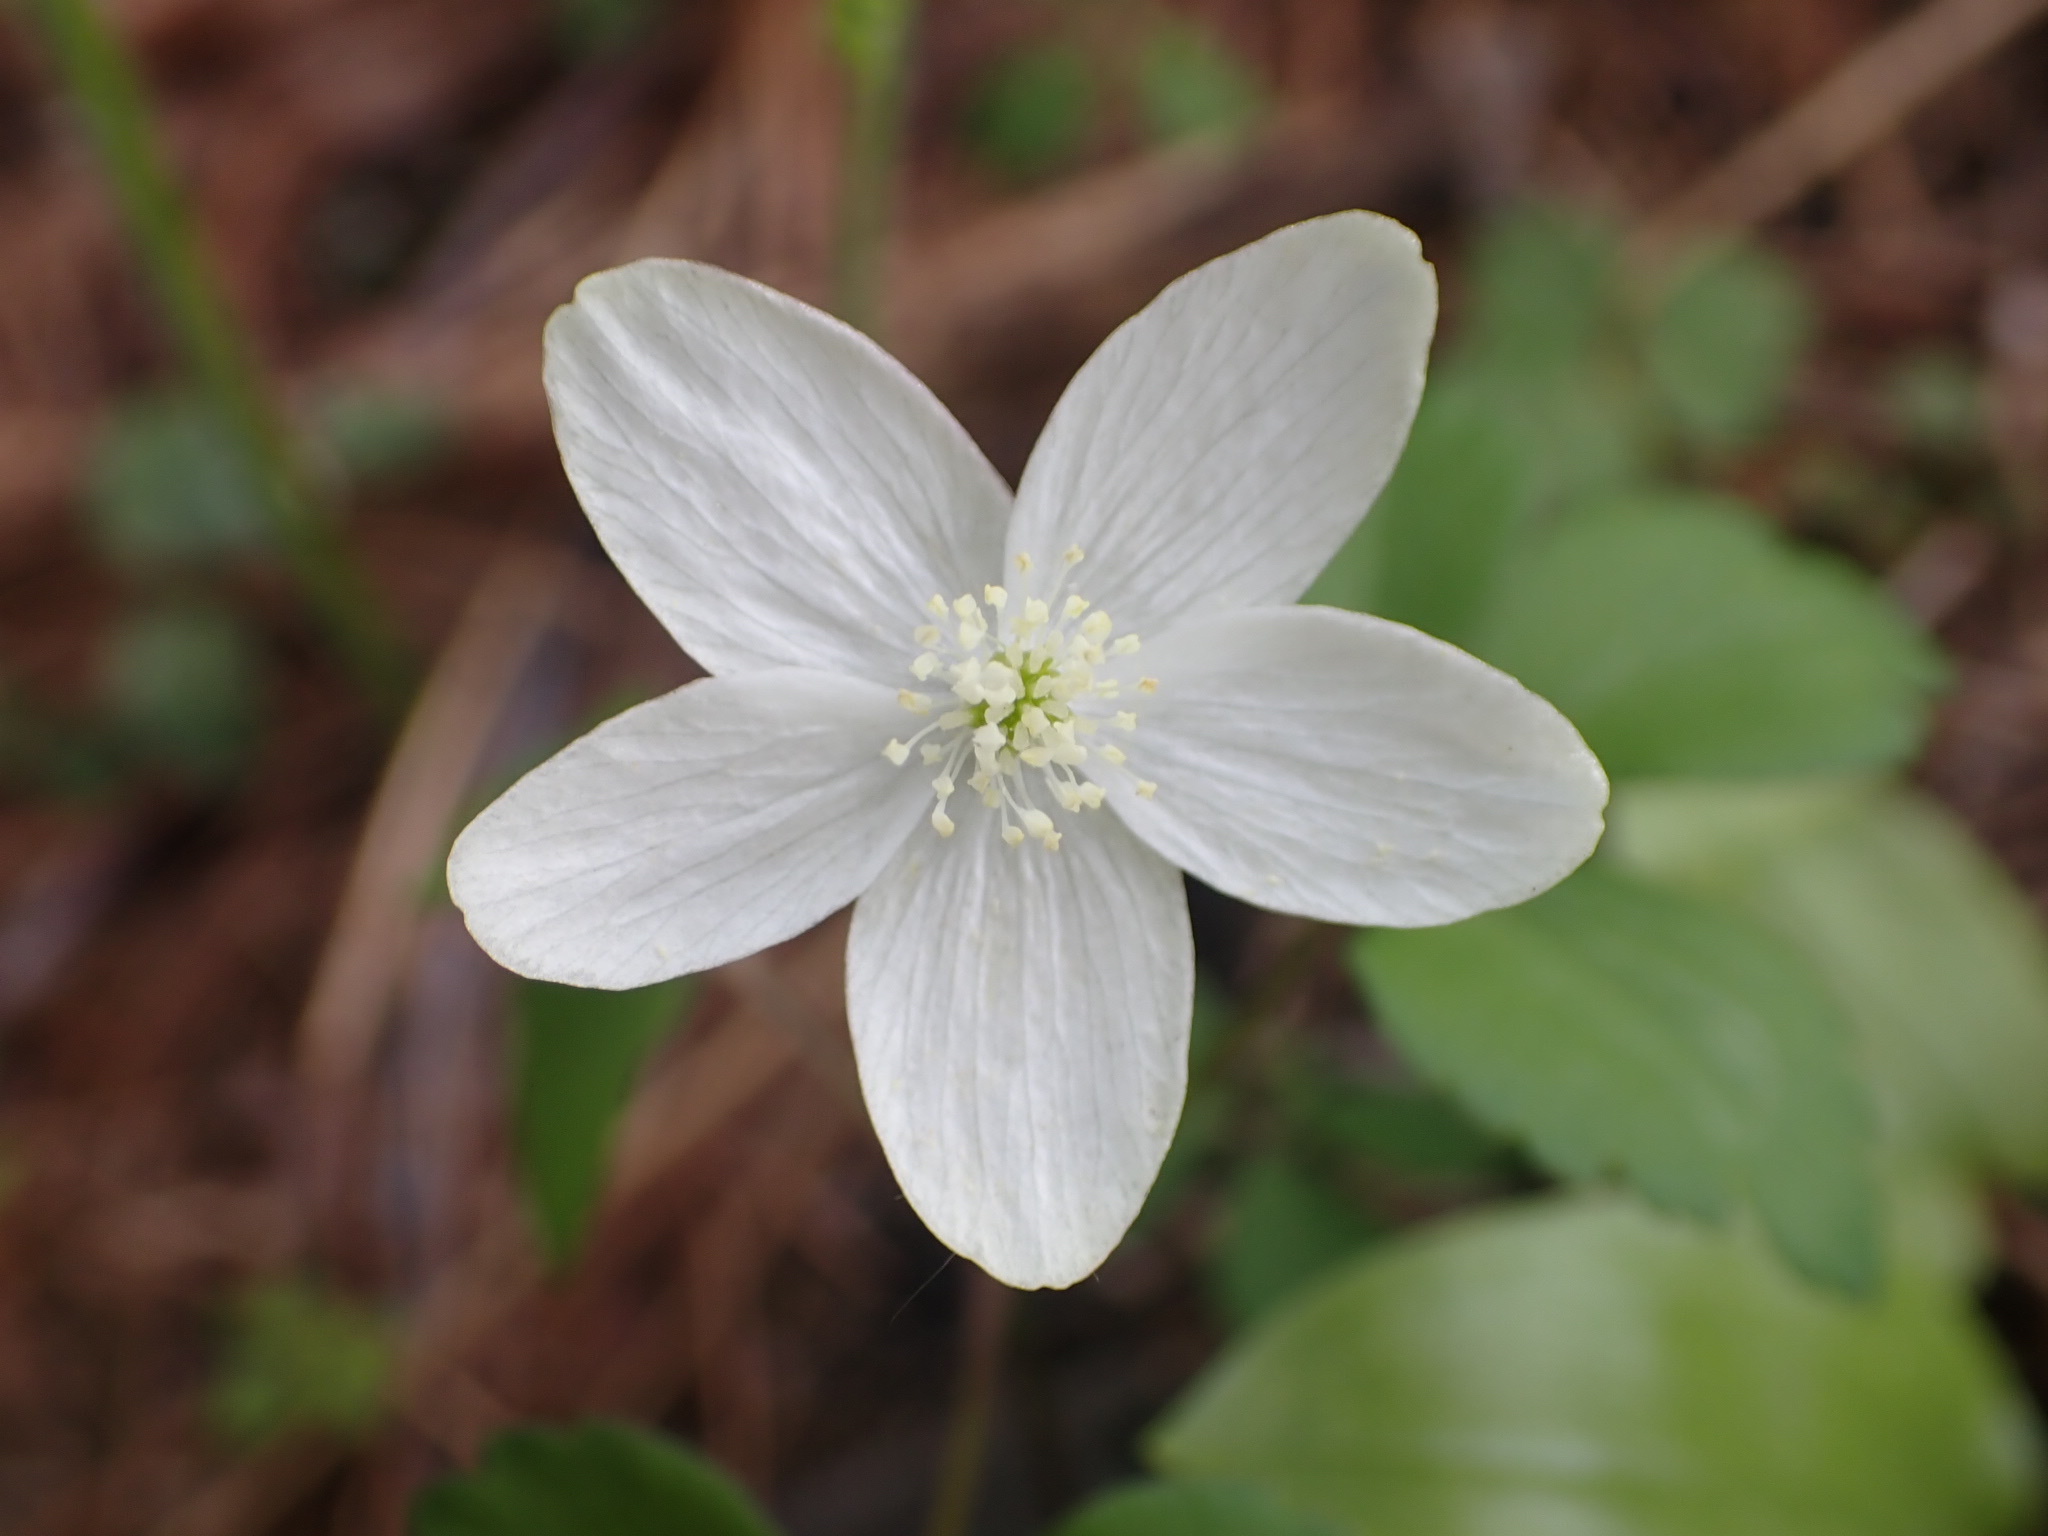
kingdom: Plantae
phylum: Tracheophyta
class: Magnoliopsida
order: Ranunculales
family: Ranunculaceae
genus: Anemone
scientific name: Anemone quinquefolia
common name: Wood anemone
